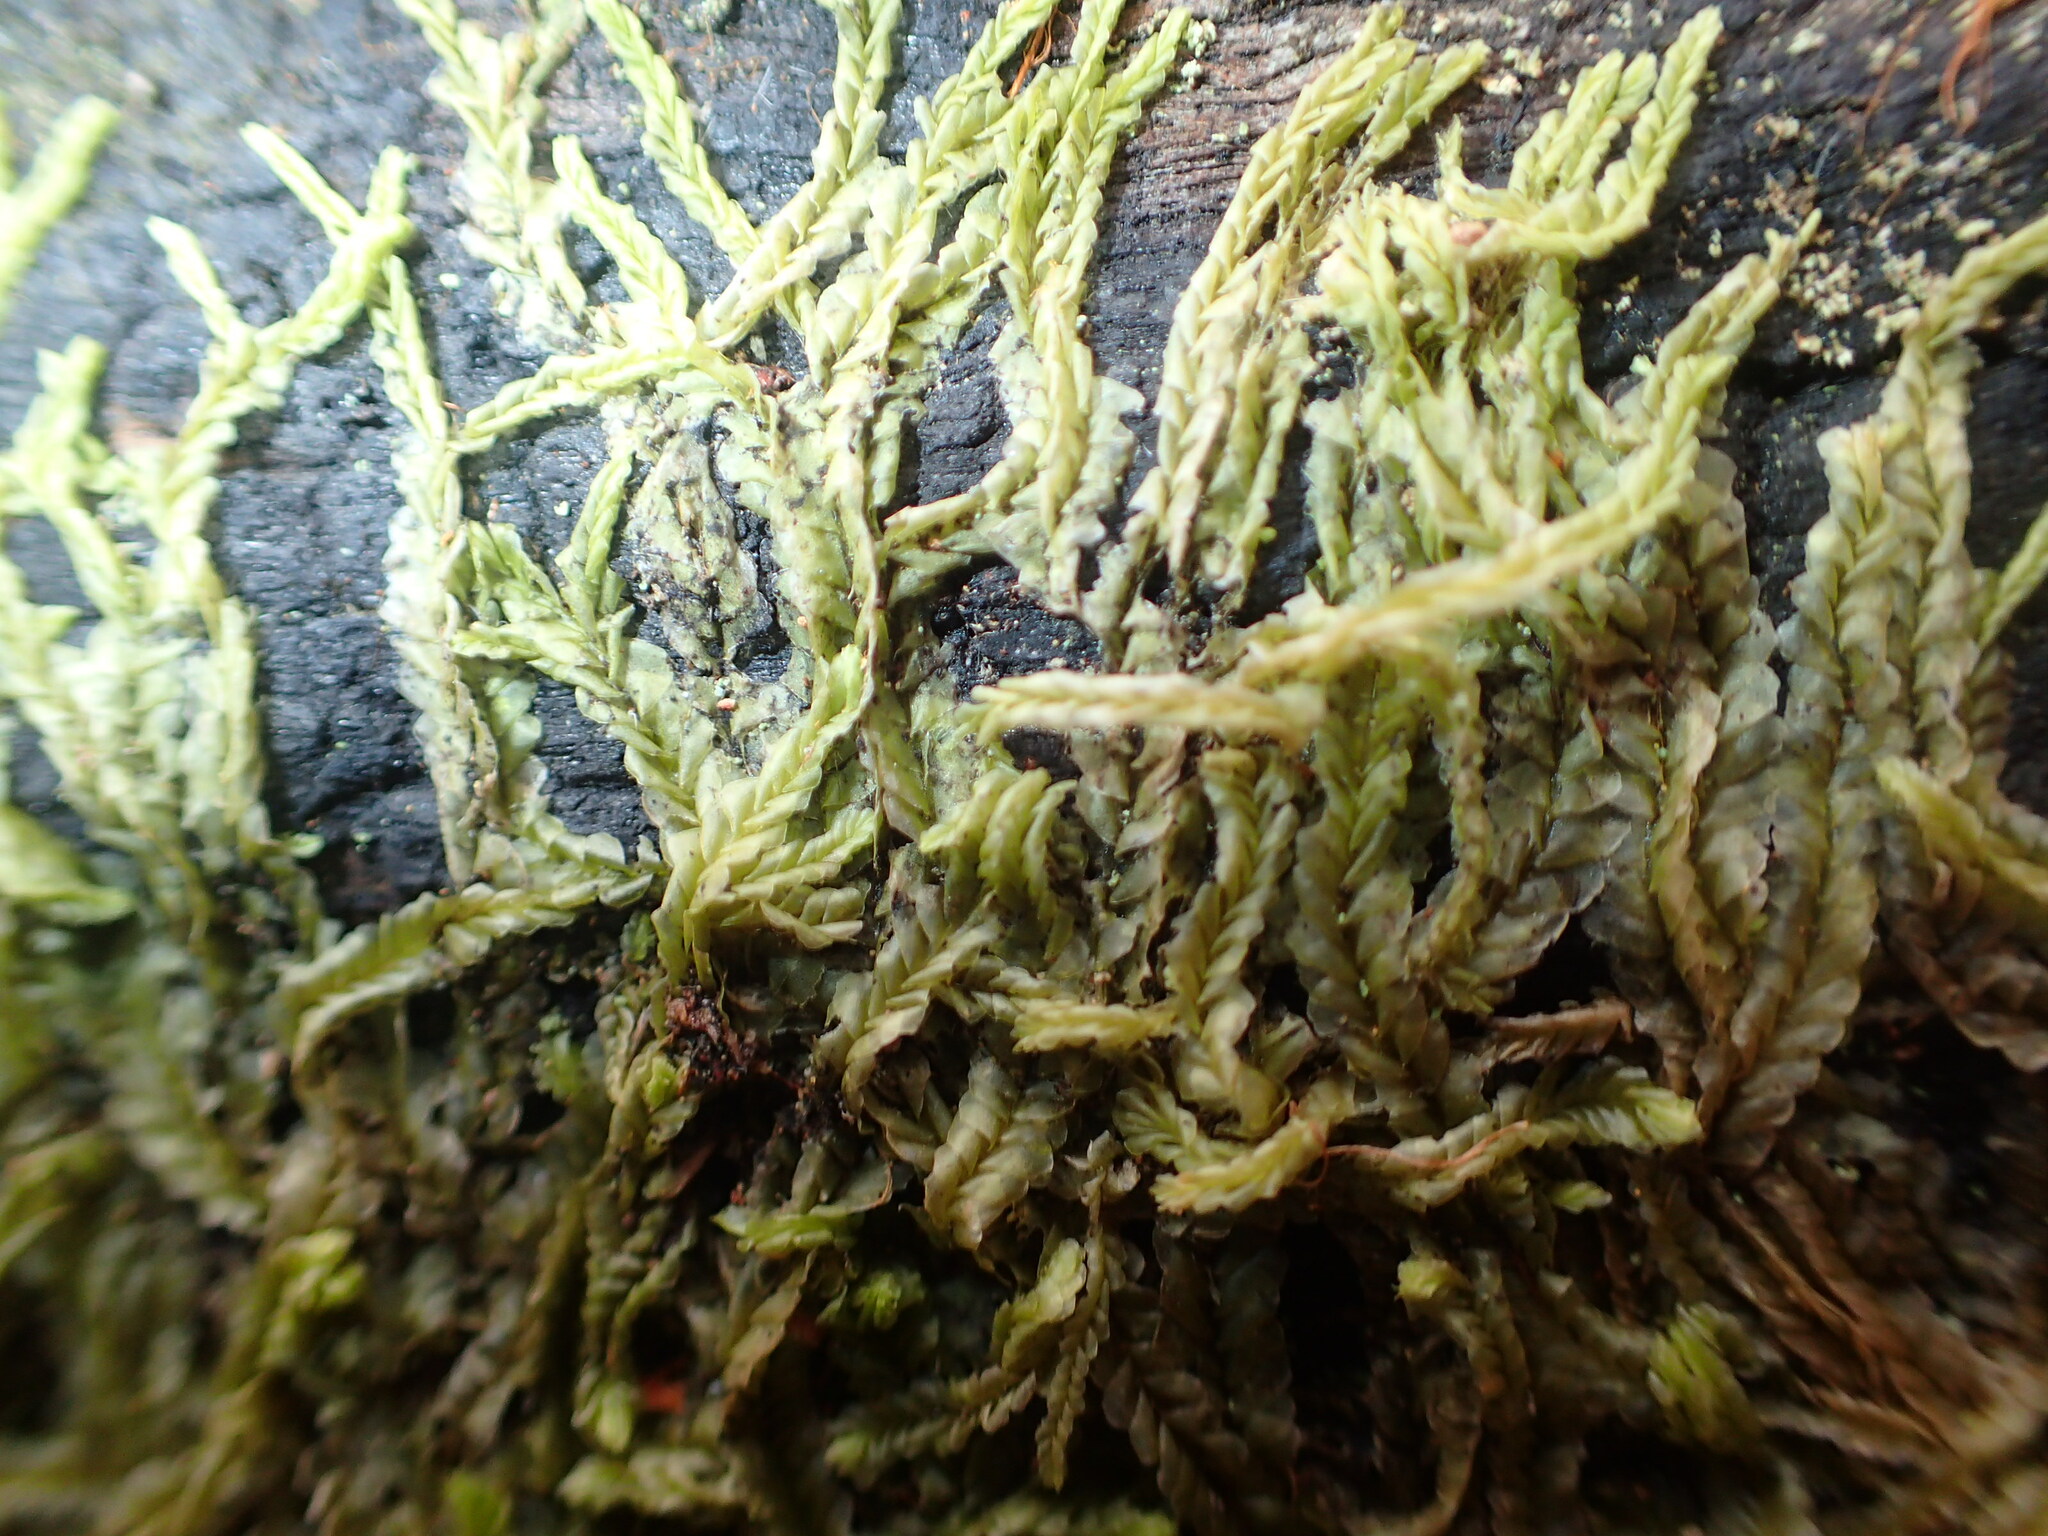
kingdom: Plantae
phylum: Marchantiophyta
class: Jungermanniopsida
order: Jungermanniales
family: Lophocoleaceae
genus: Lophocolea
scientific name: Lophocolea semiteres
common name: Southern crestwort
